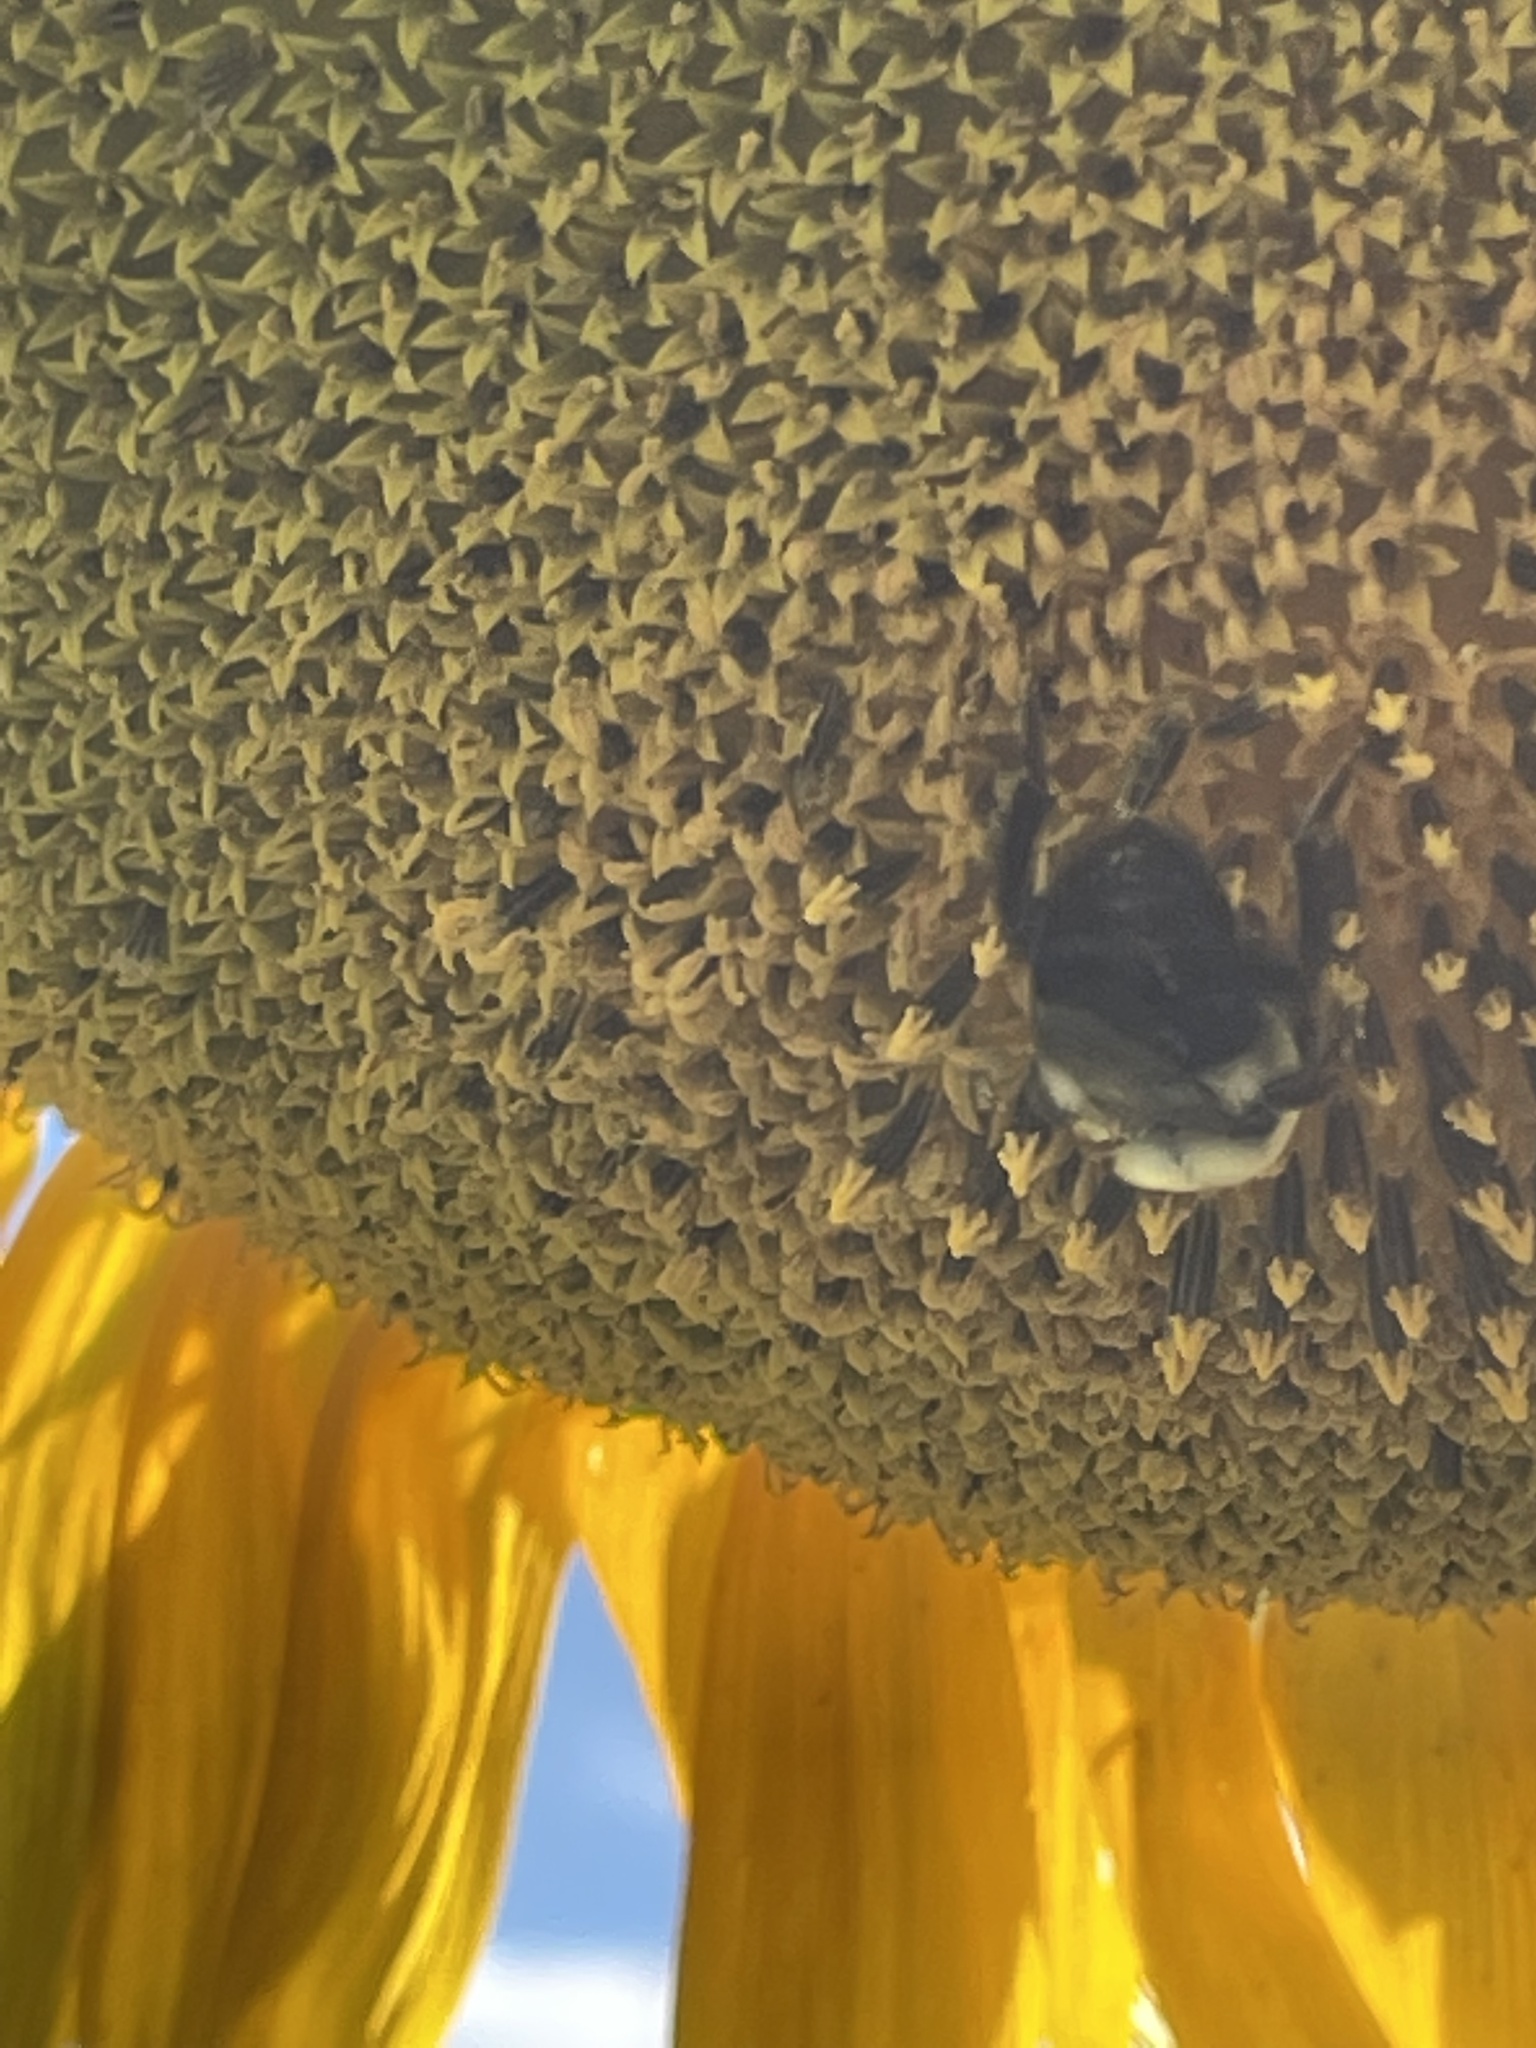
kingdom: Animalia
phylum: Arthropoda
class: Insecta
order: Hymenoptera
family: Apidae
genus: Bombus
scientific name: Bombus impatiens
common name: Common eastern bumble bee
